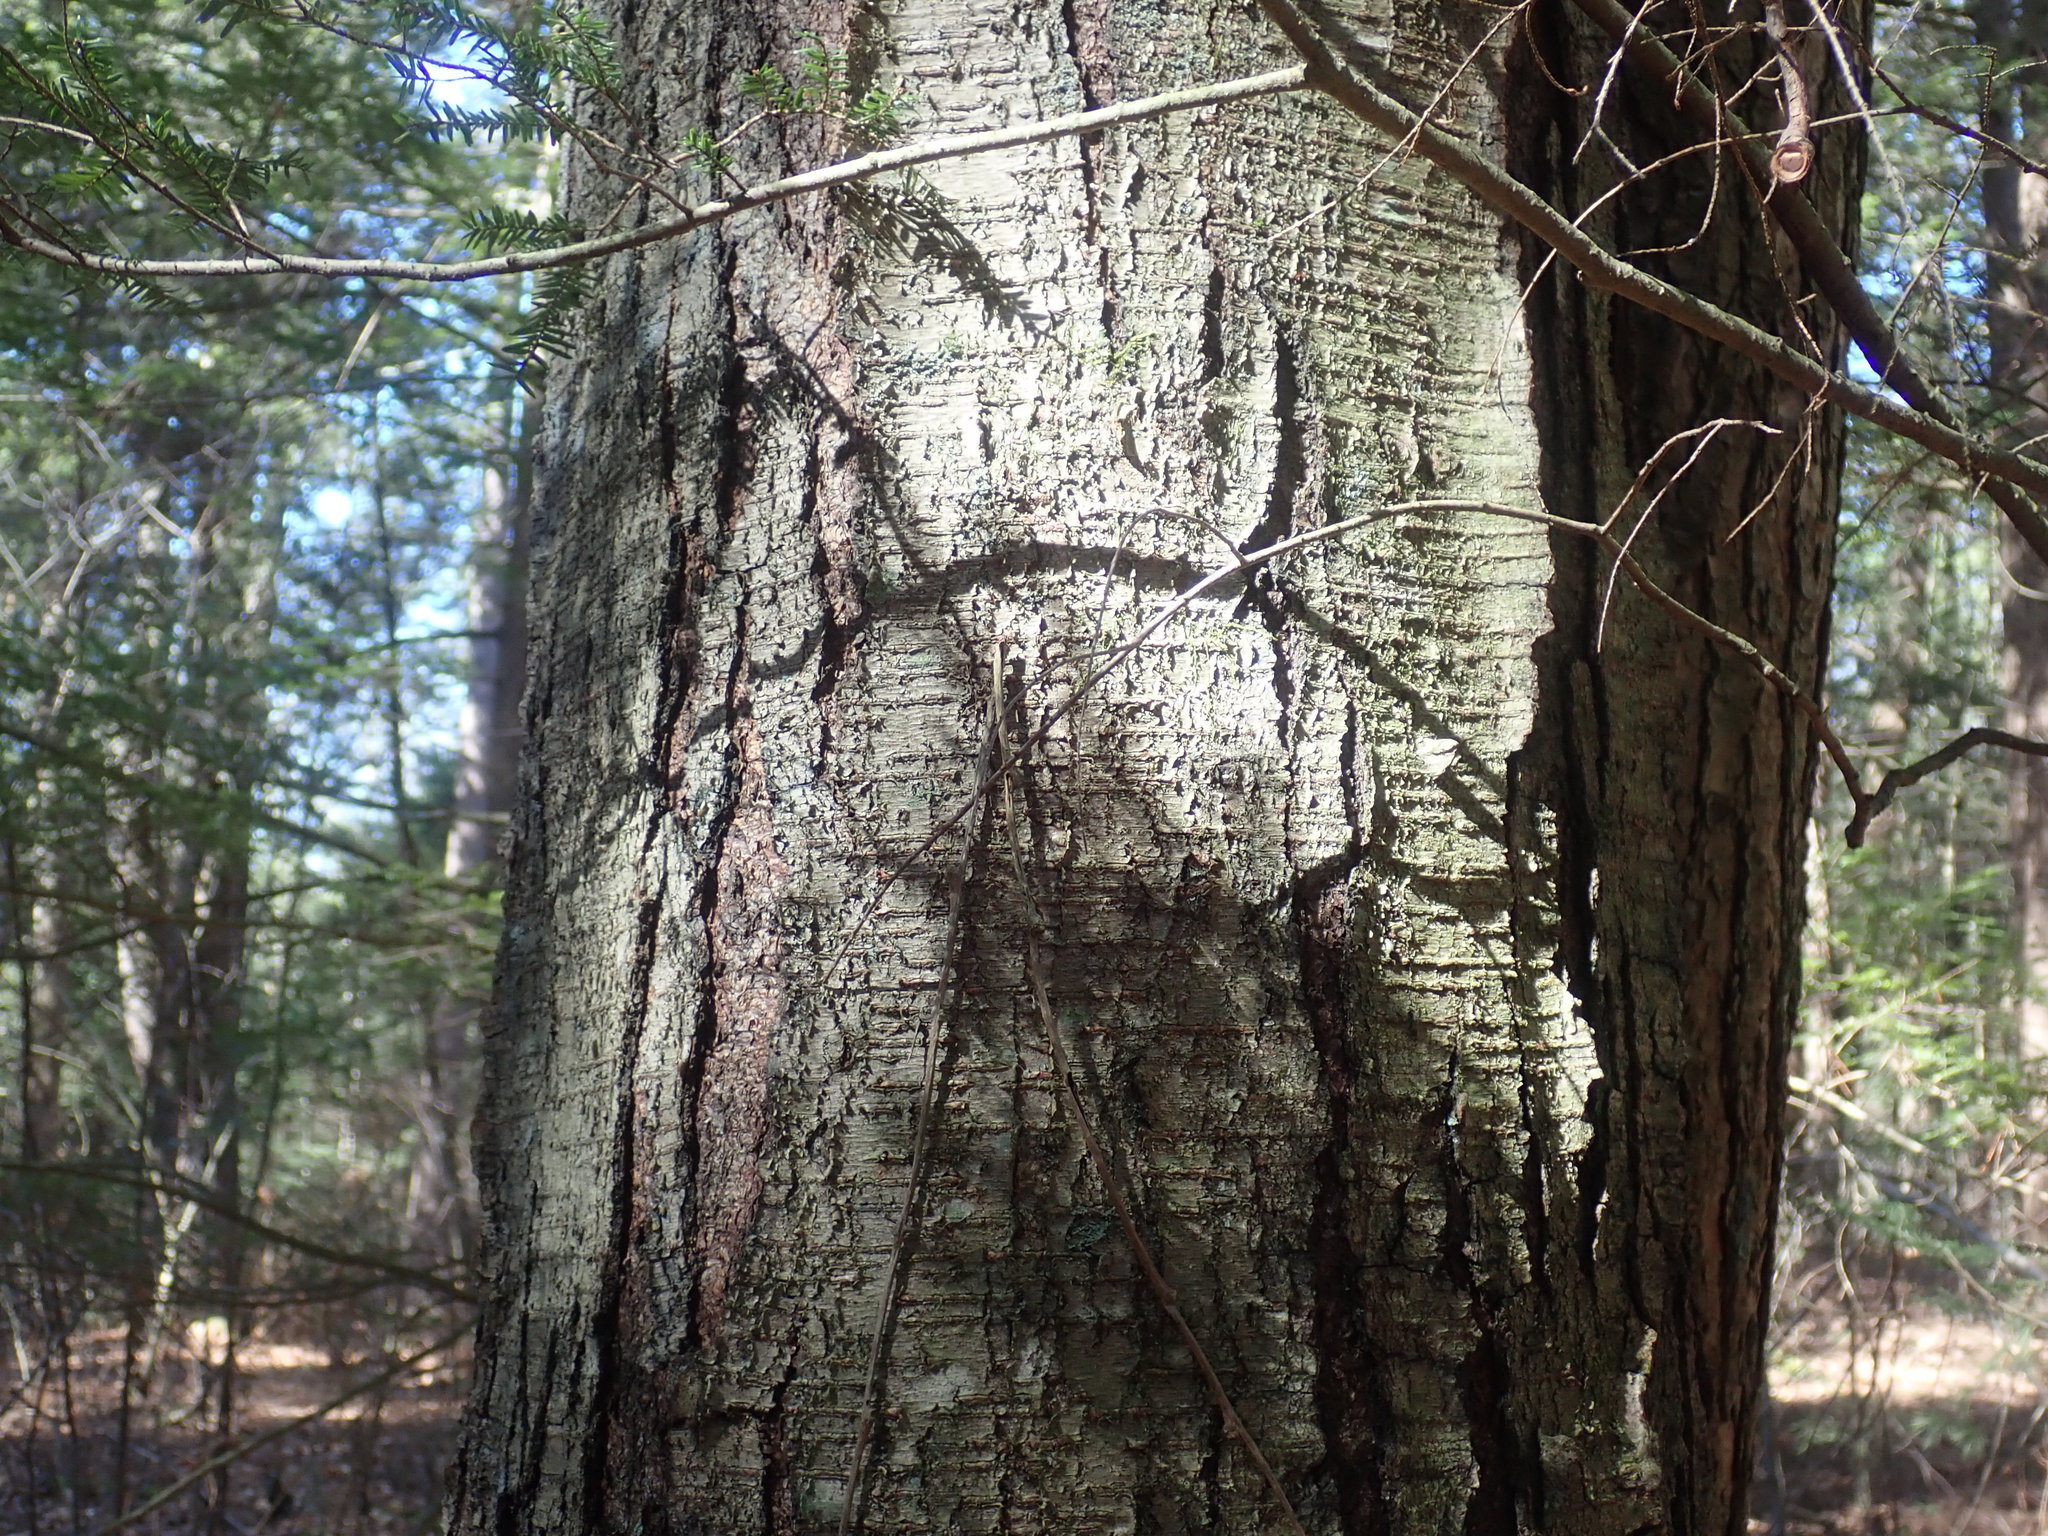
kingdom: Plantae
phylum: Tracheophyta
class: Magnoliopsida
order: Fagales
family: Betulaceae
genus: Betula
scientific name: Betula lenta
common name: Black birch
